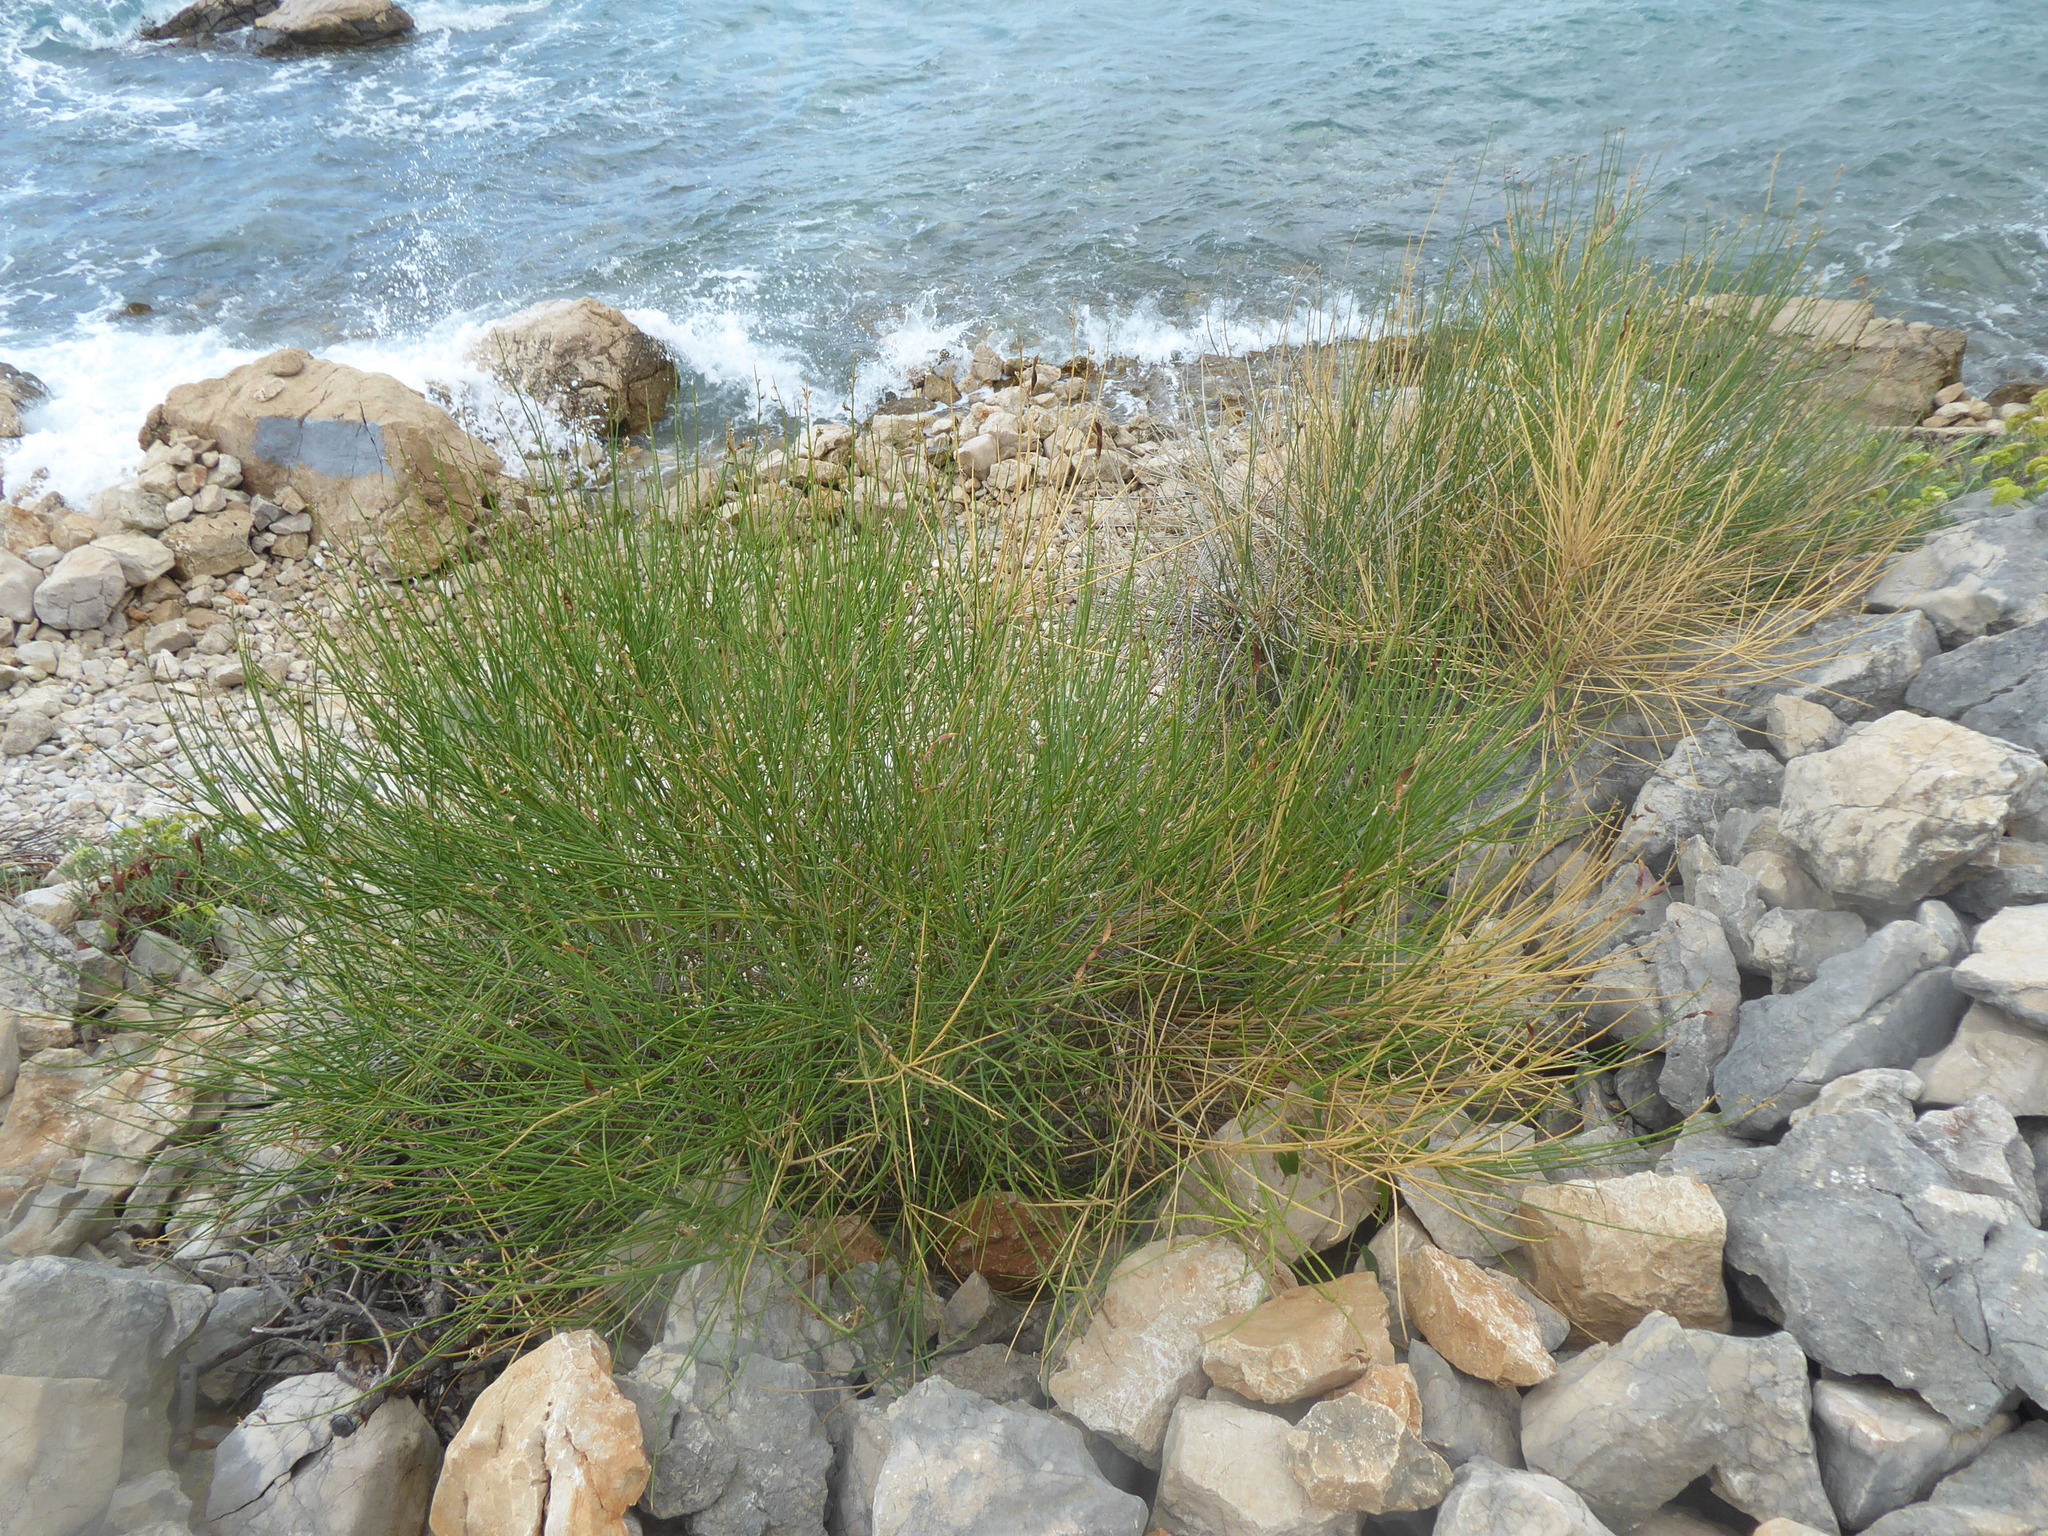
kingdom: Plantae
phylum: Tracheophyta
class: Magnoliopsida
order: Fabales
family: Fabaceae
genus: Spartium
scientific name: Spartium junceum
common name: Spanish broom
